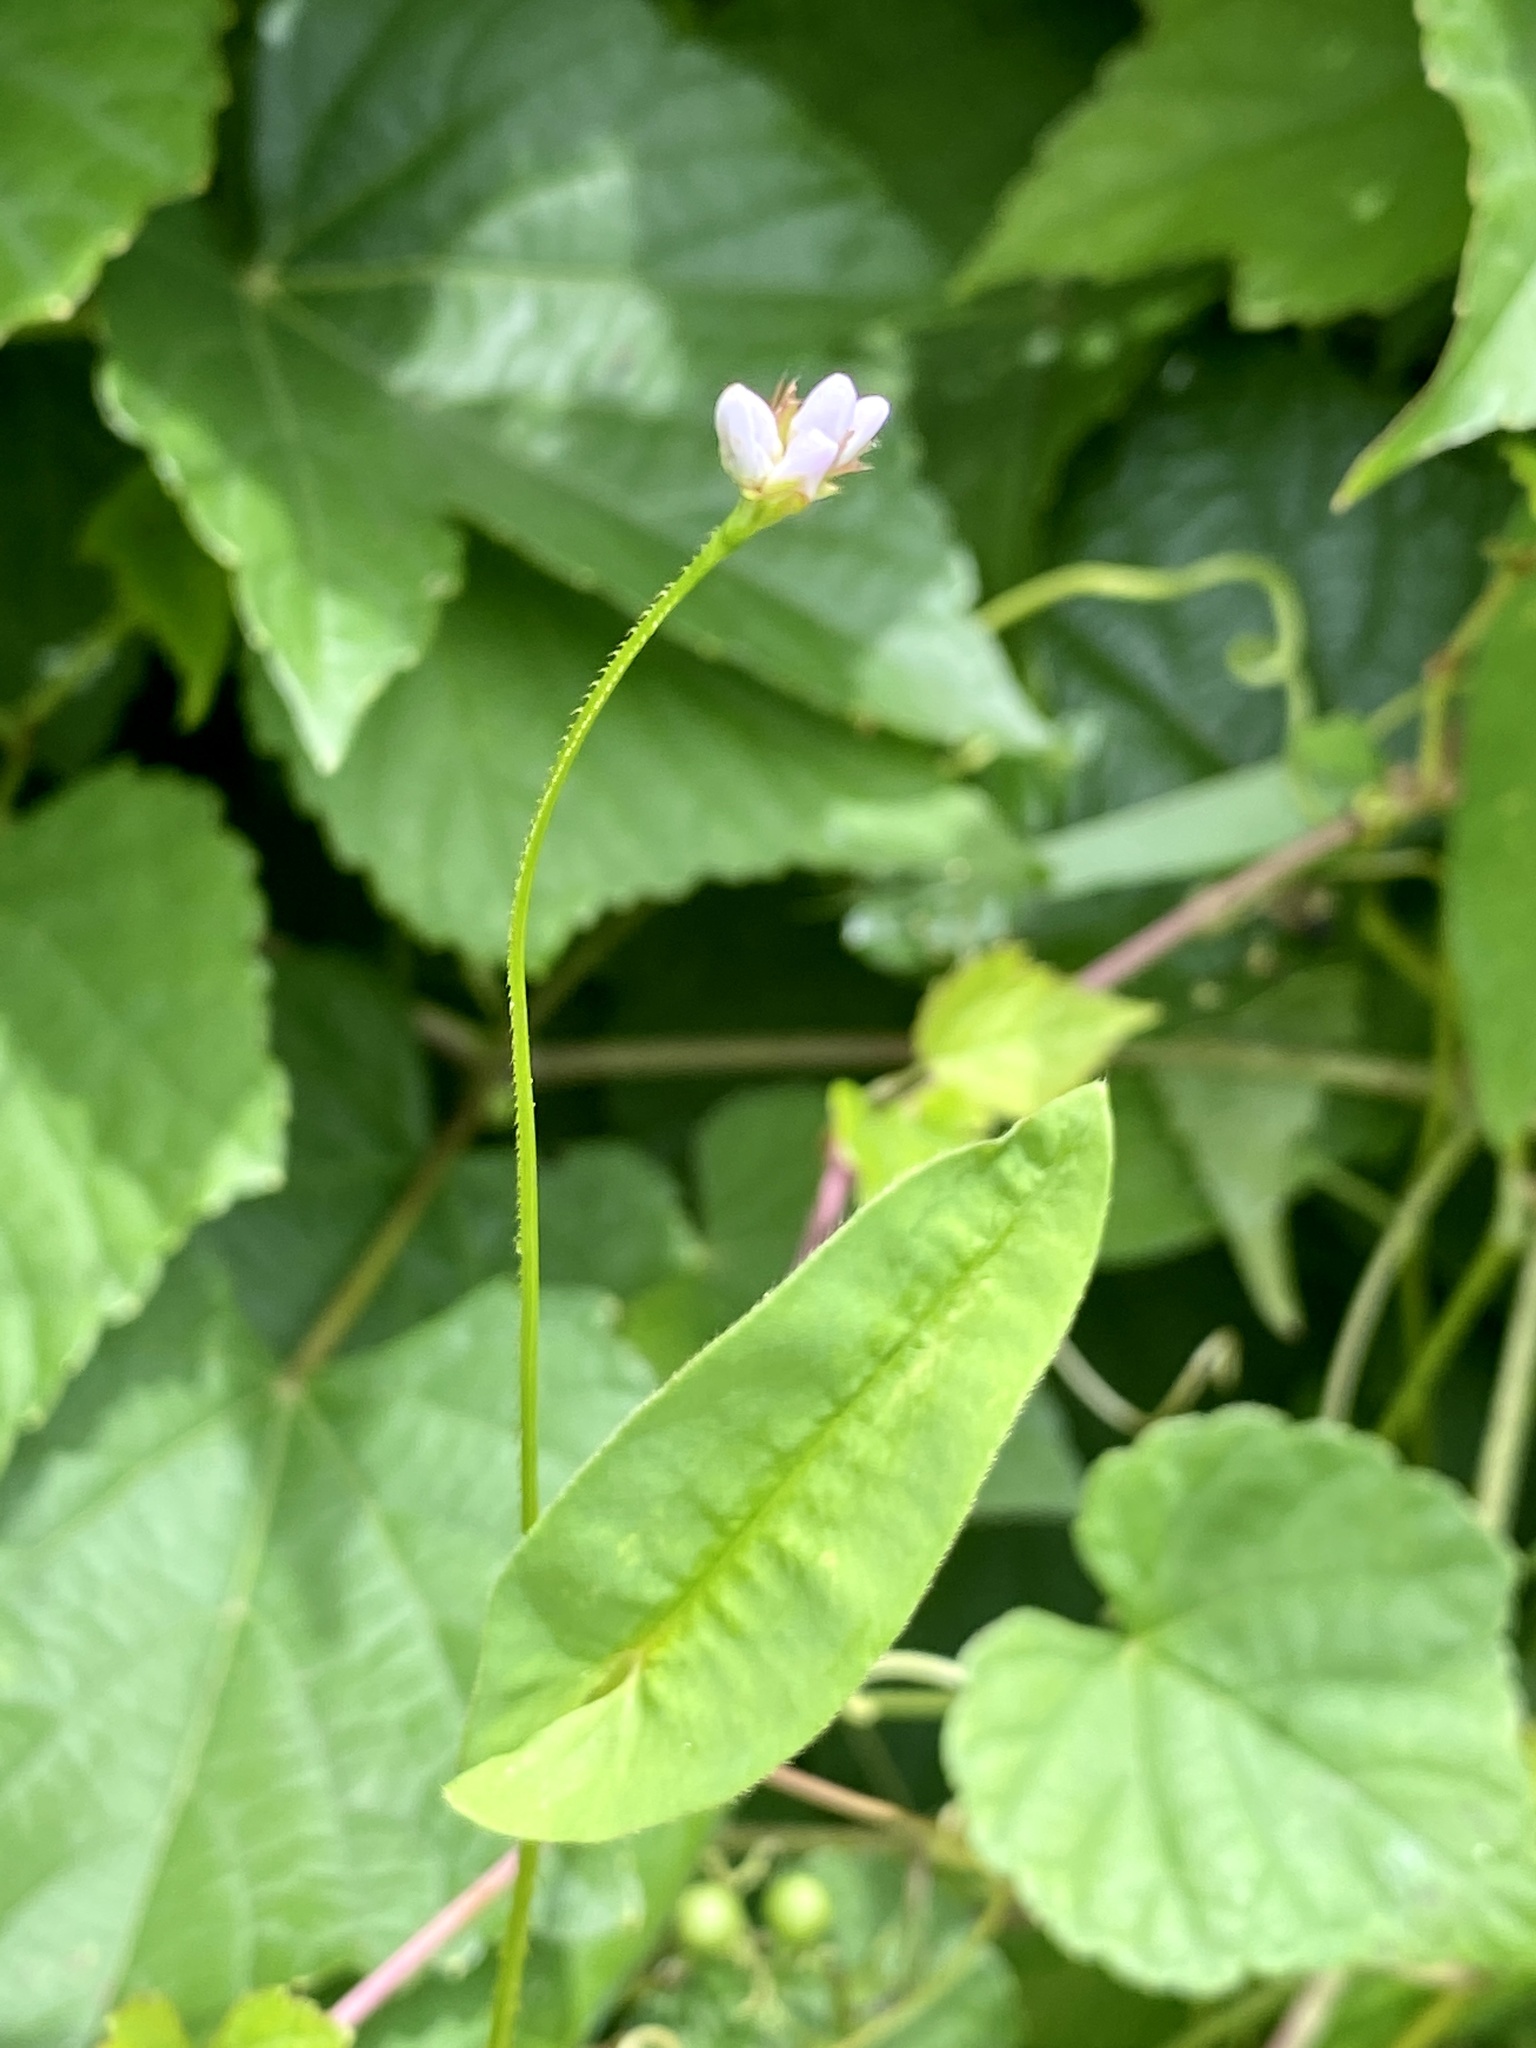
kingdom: Plantae
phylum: Tracheophyta
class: Magnoliopsida
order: Caryophyllales
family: Polygonaceae
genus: Persicaria
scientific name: Persicaria sagittata
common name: American tearthumb
